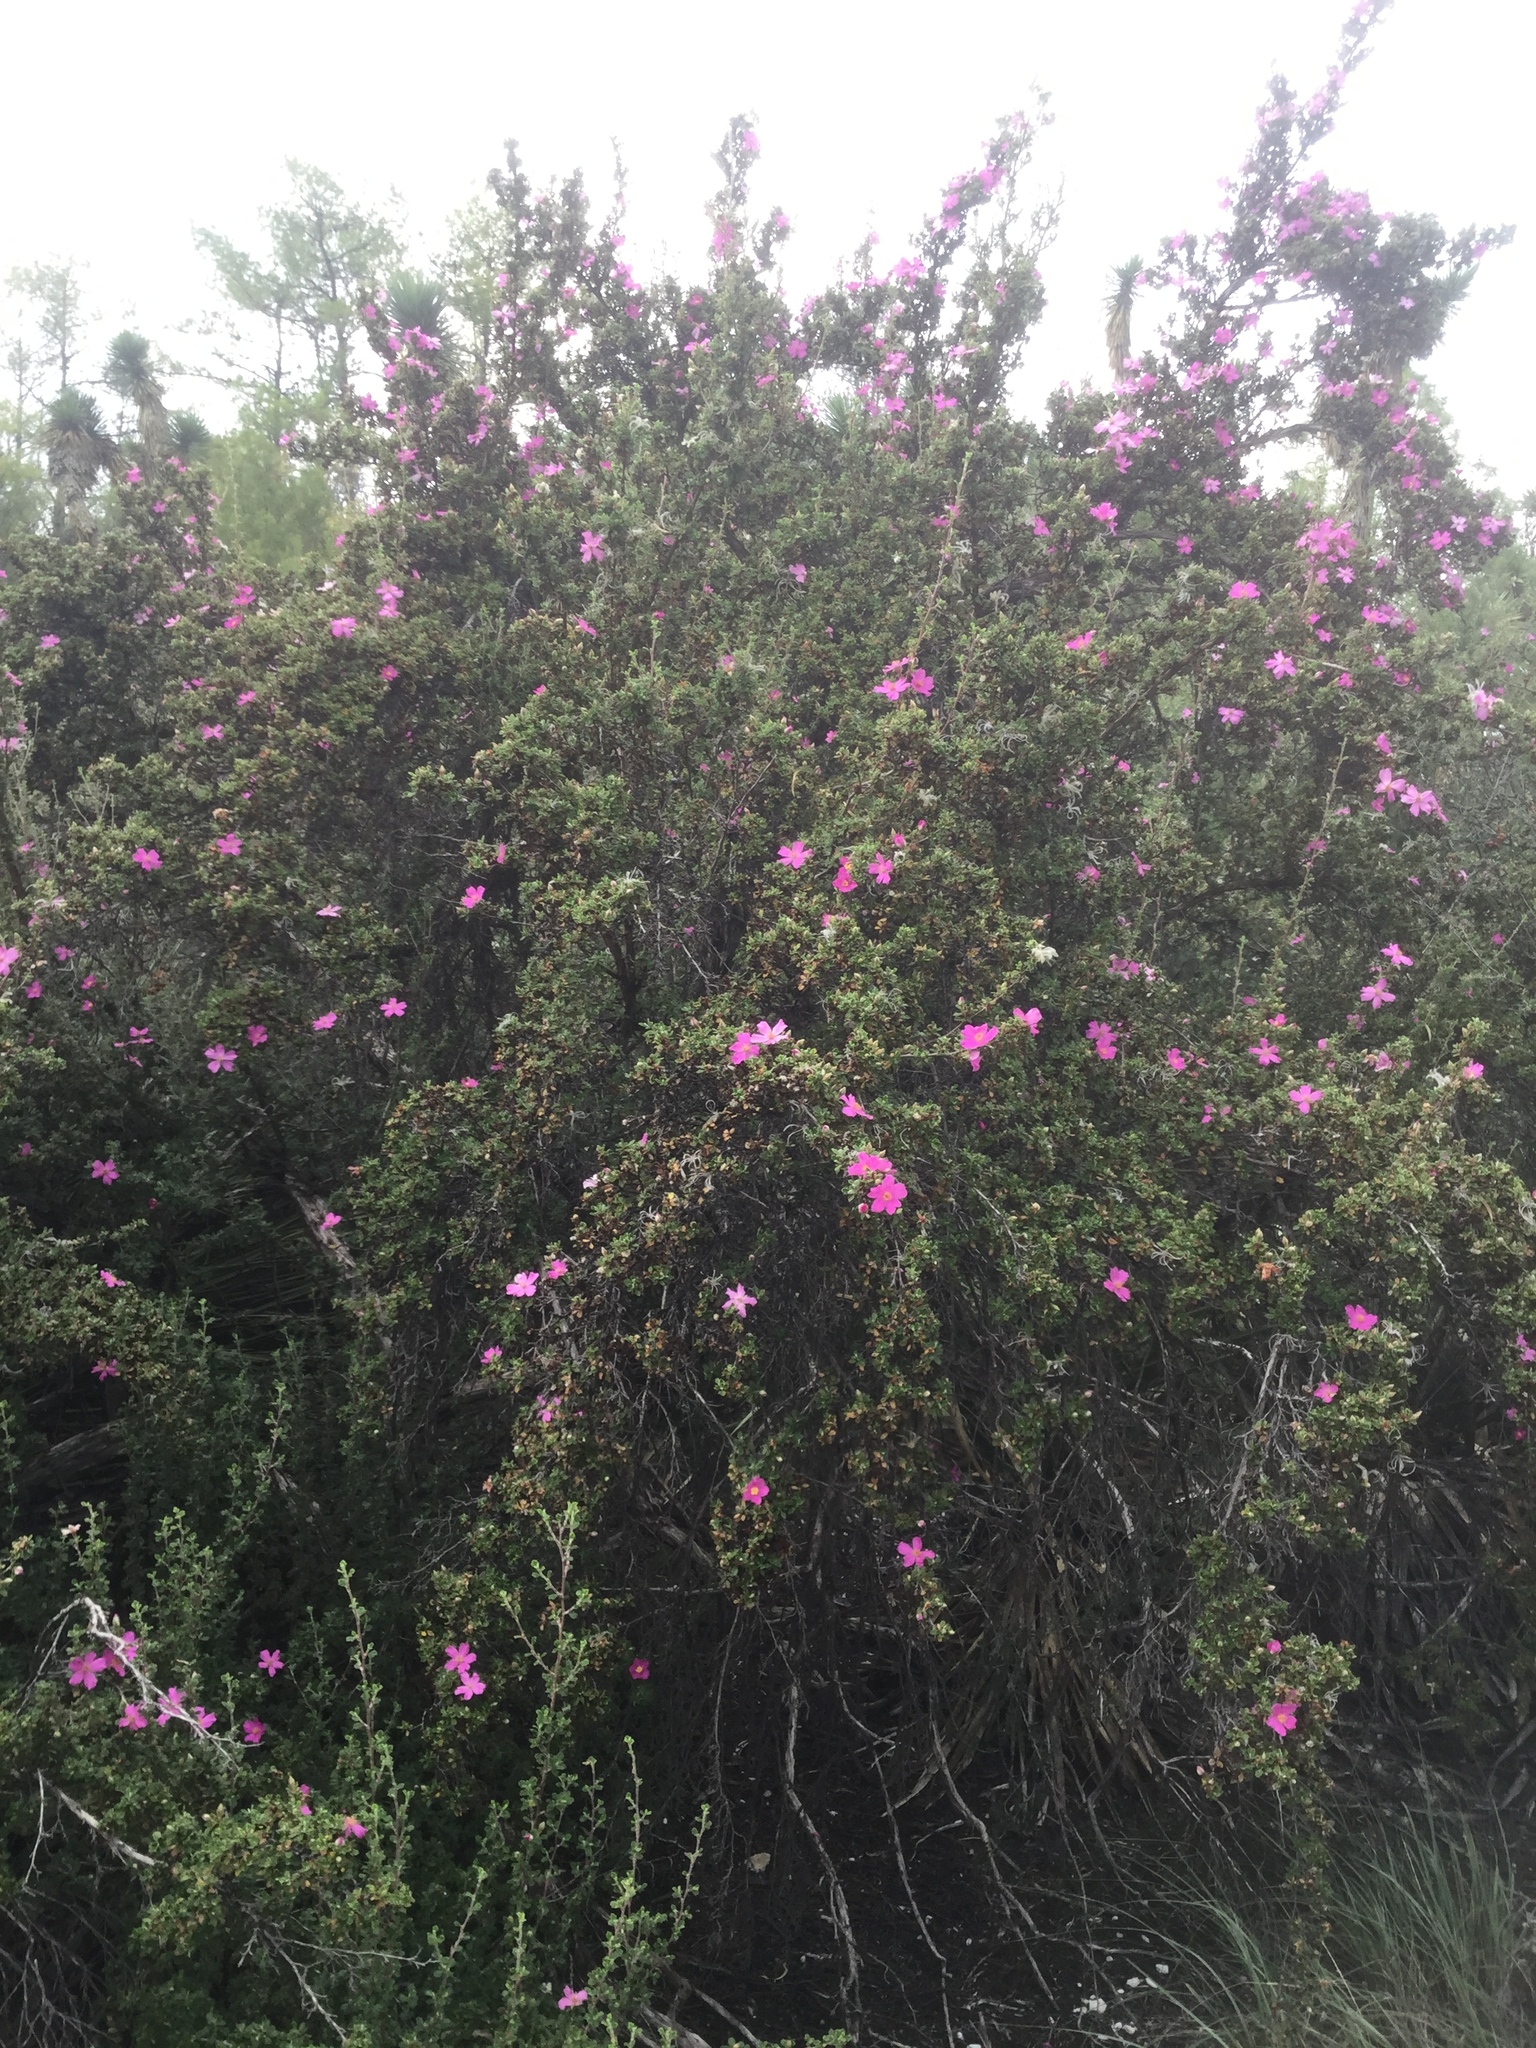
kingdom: Plantae
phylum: Tracheophyta
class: Magnoliopsida
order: Rosales
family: Rosaceae
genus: Purshia
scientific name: Purshia plicata
